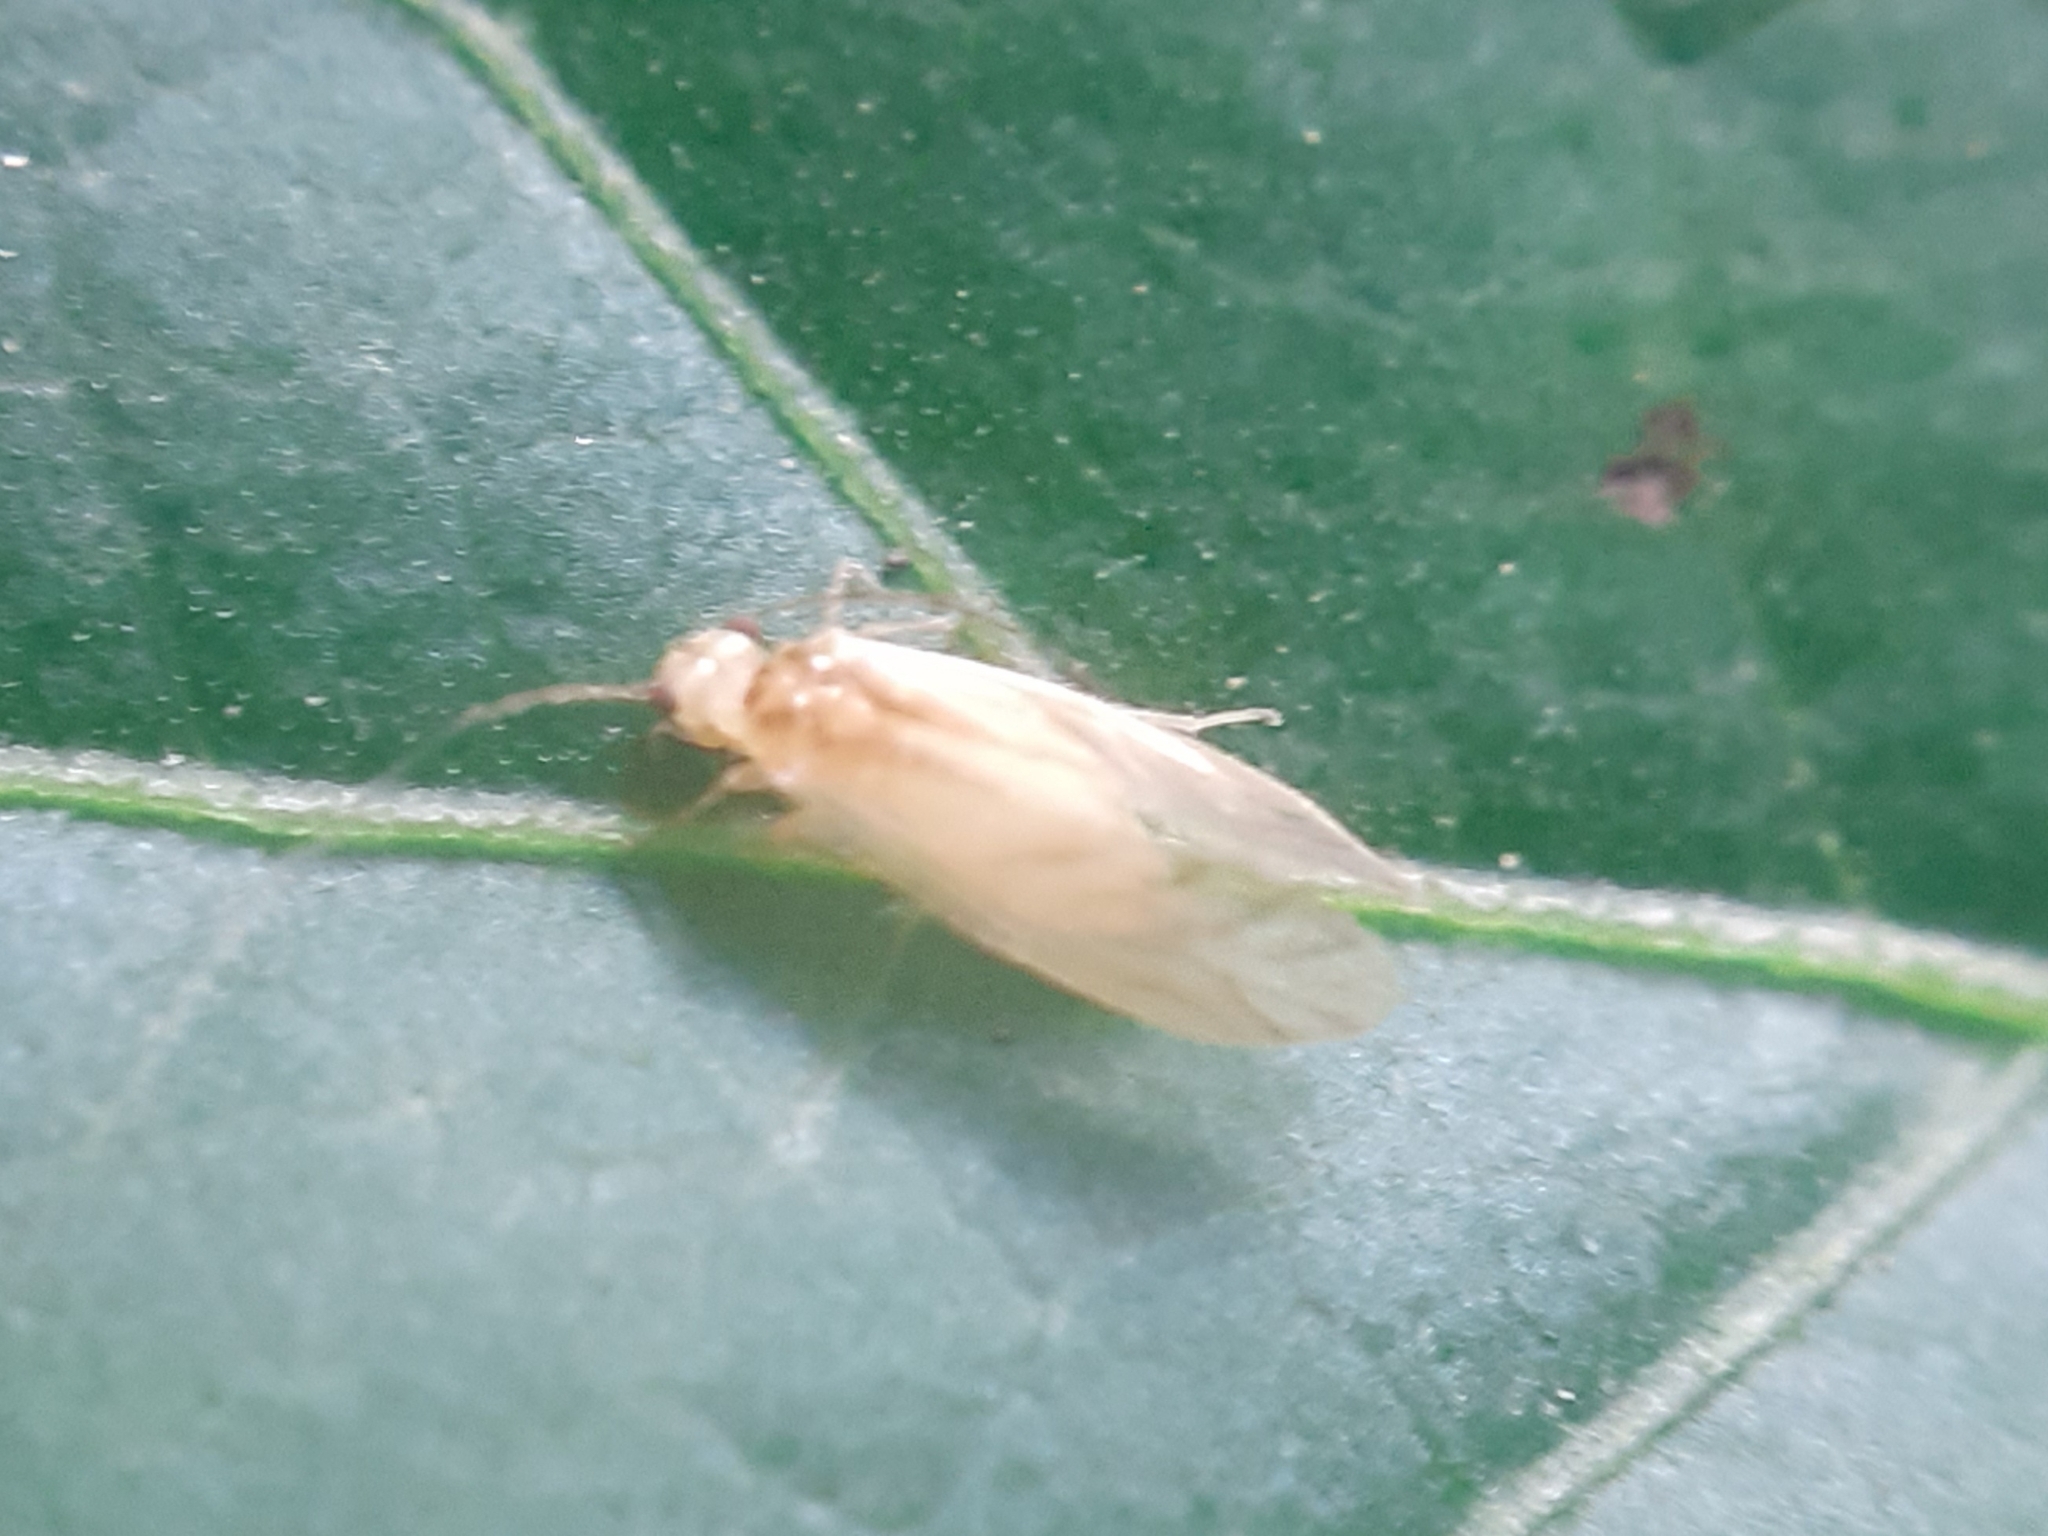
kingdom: Animalia
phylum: Arthropoda
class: Insecta
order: Psocodea
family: Caeciliusidae
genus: Valenzuela
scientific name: Valenzuela flavidus
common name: Yellow barklouse
